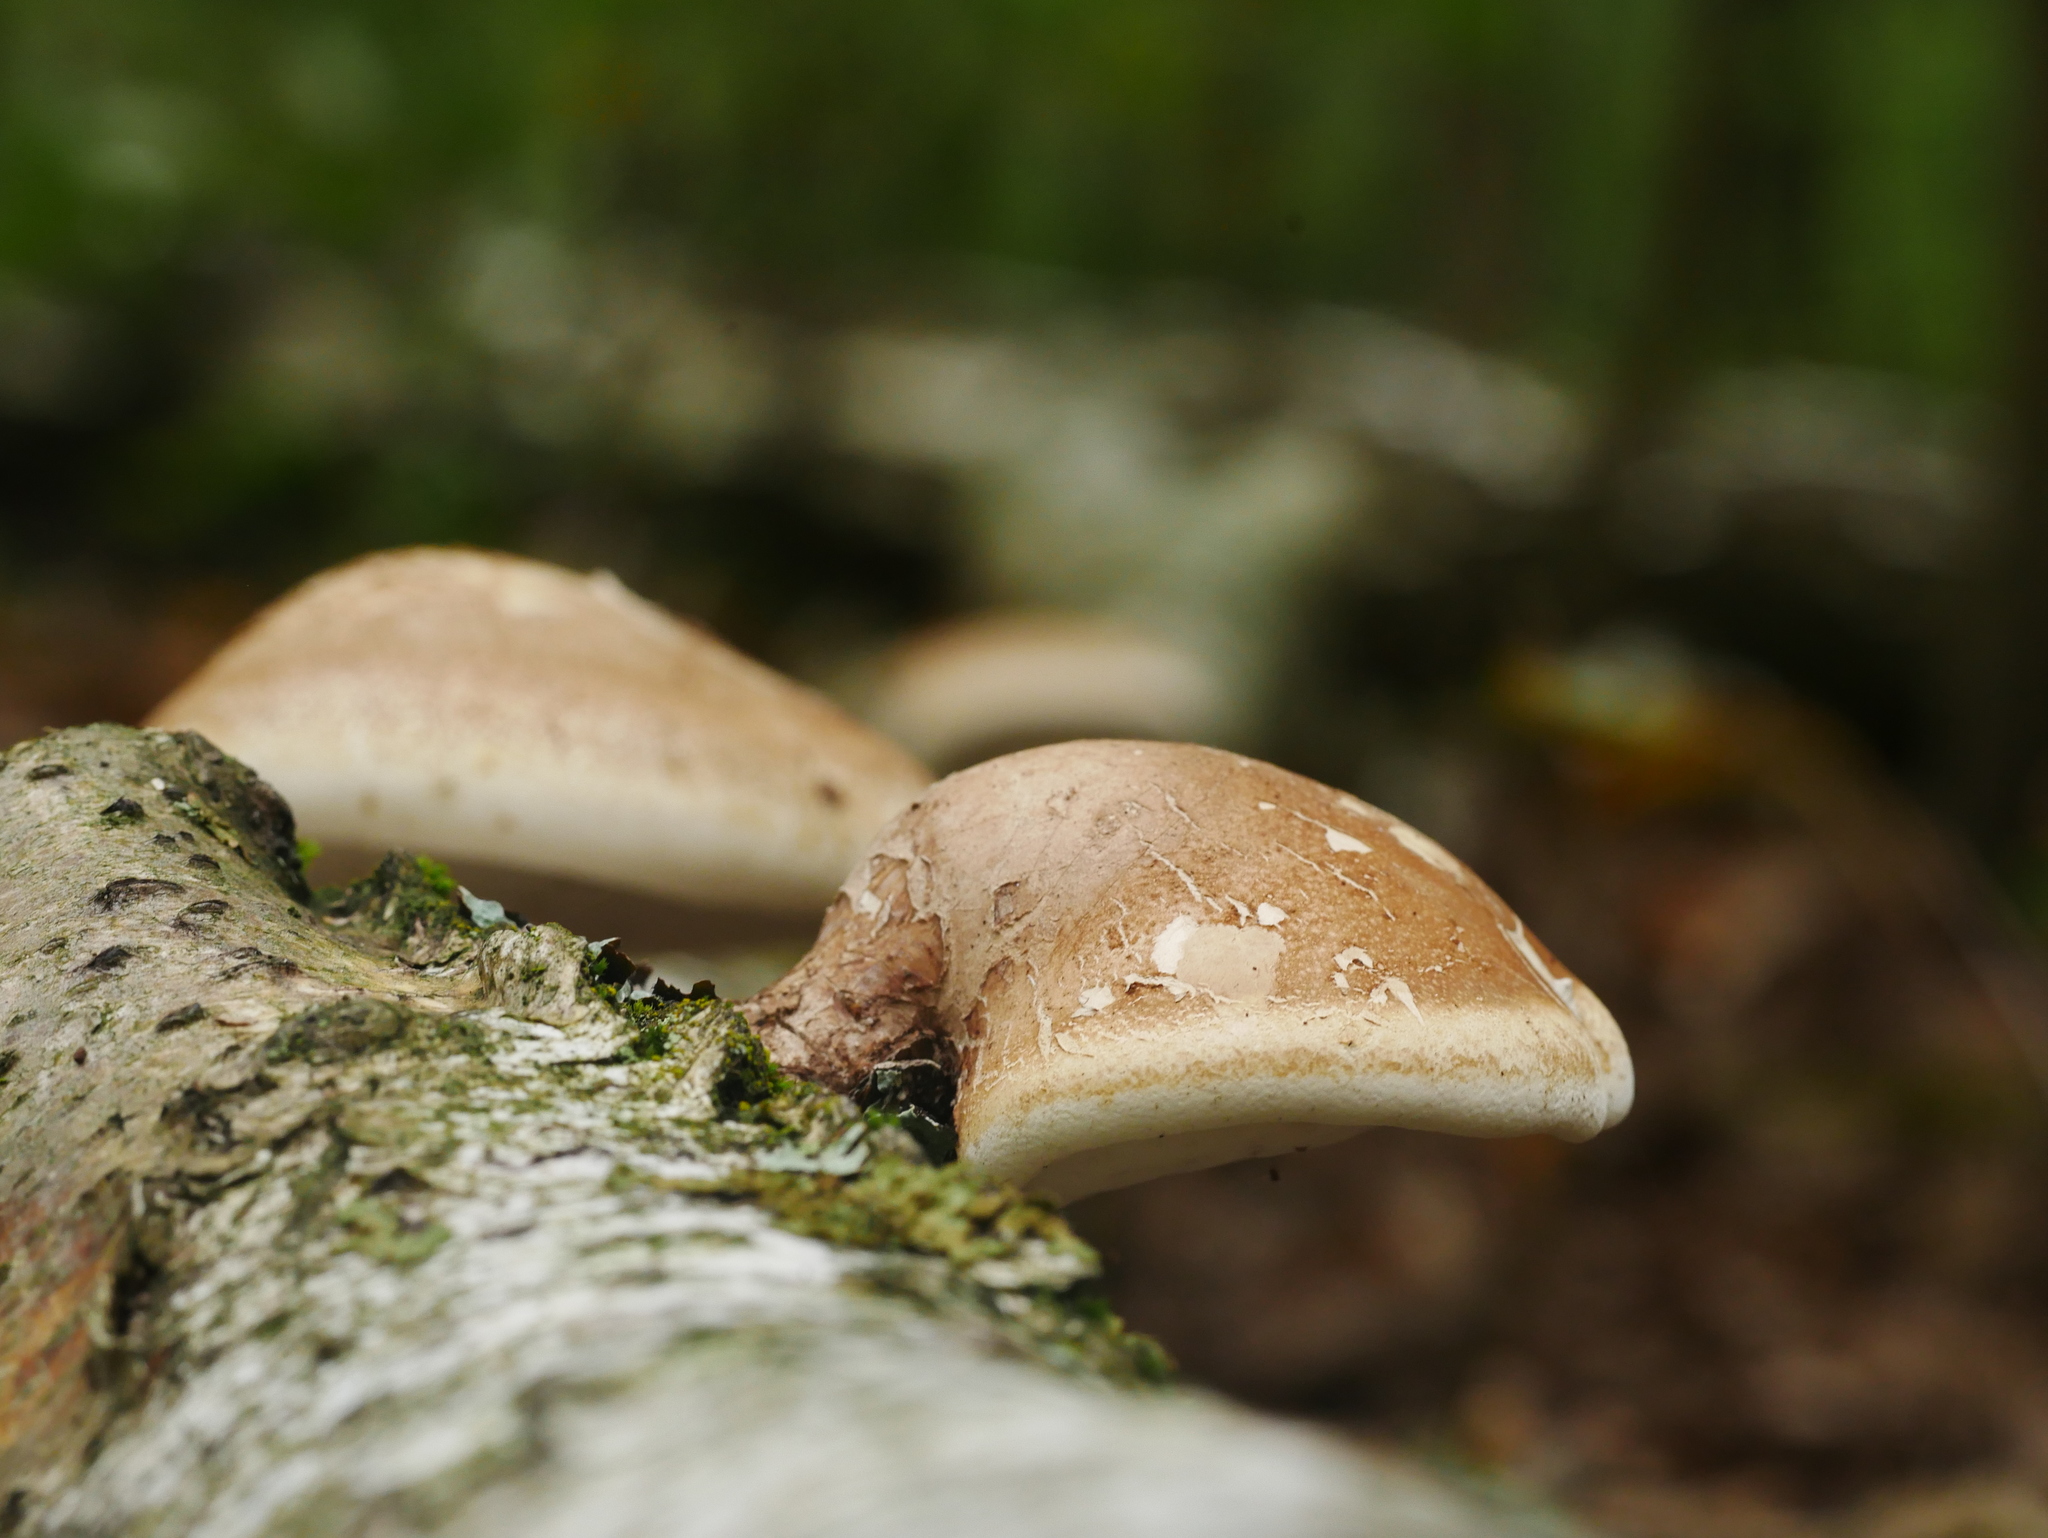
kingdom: Fungi
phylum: Basidiomycota
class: Agaricomycetes
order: Polyporales
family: Fomitopsidaceae
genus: Fomitopsis
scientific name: Fomitopsis betulina
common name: Birch polypore
